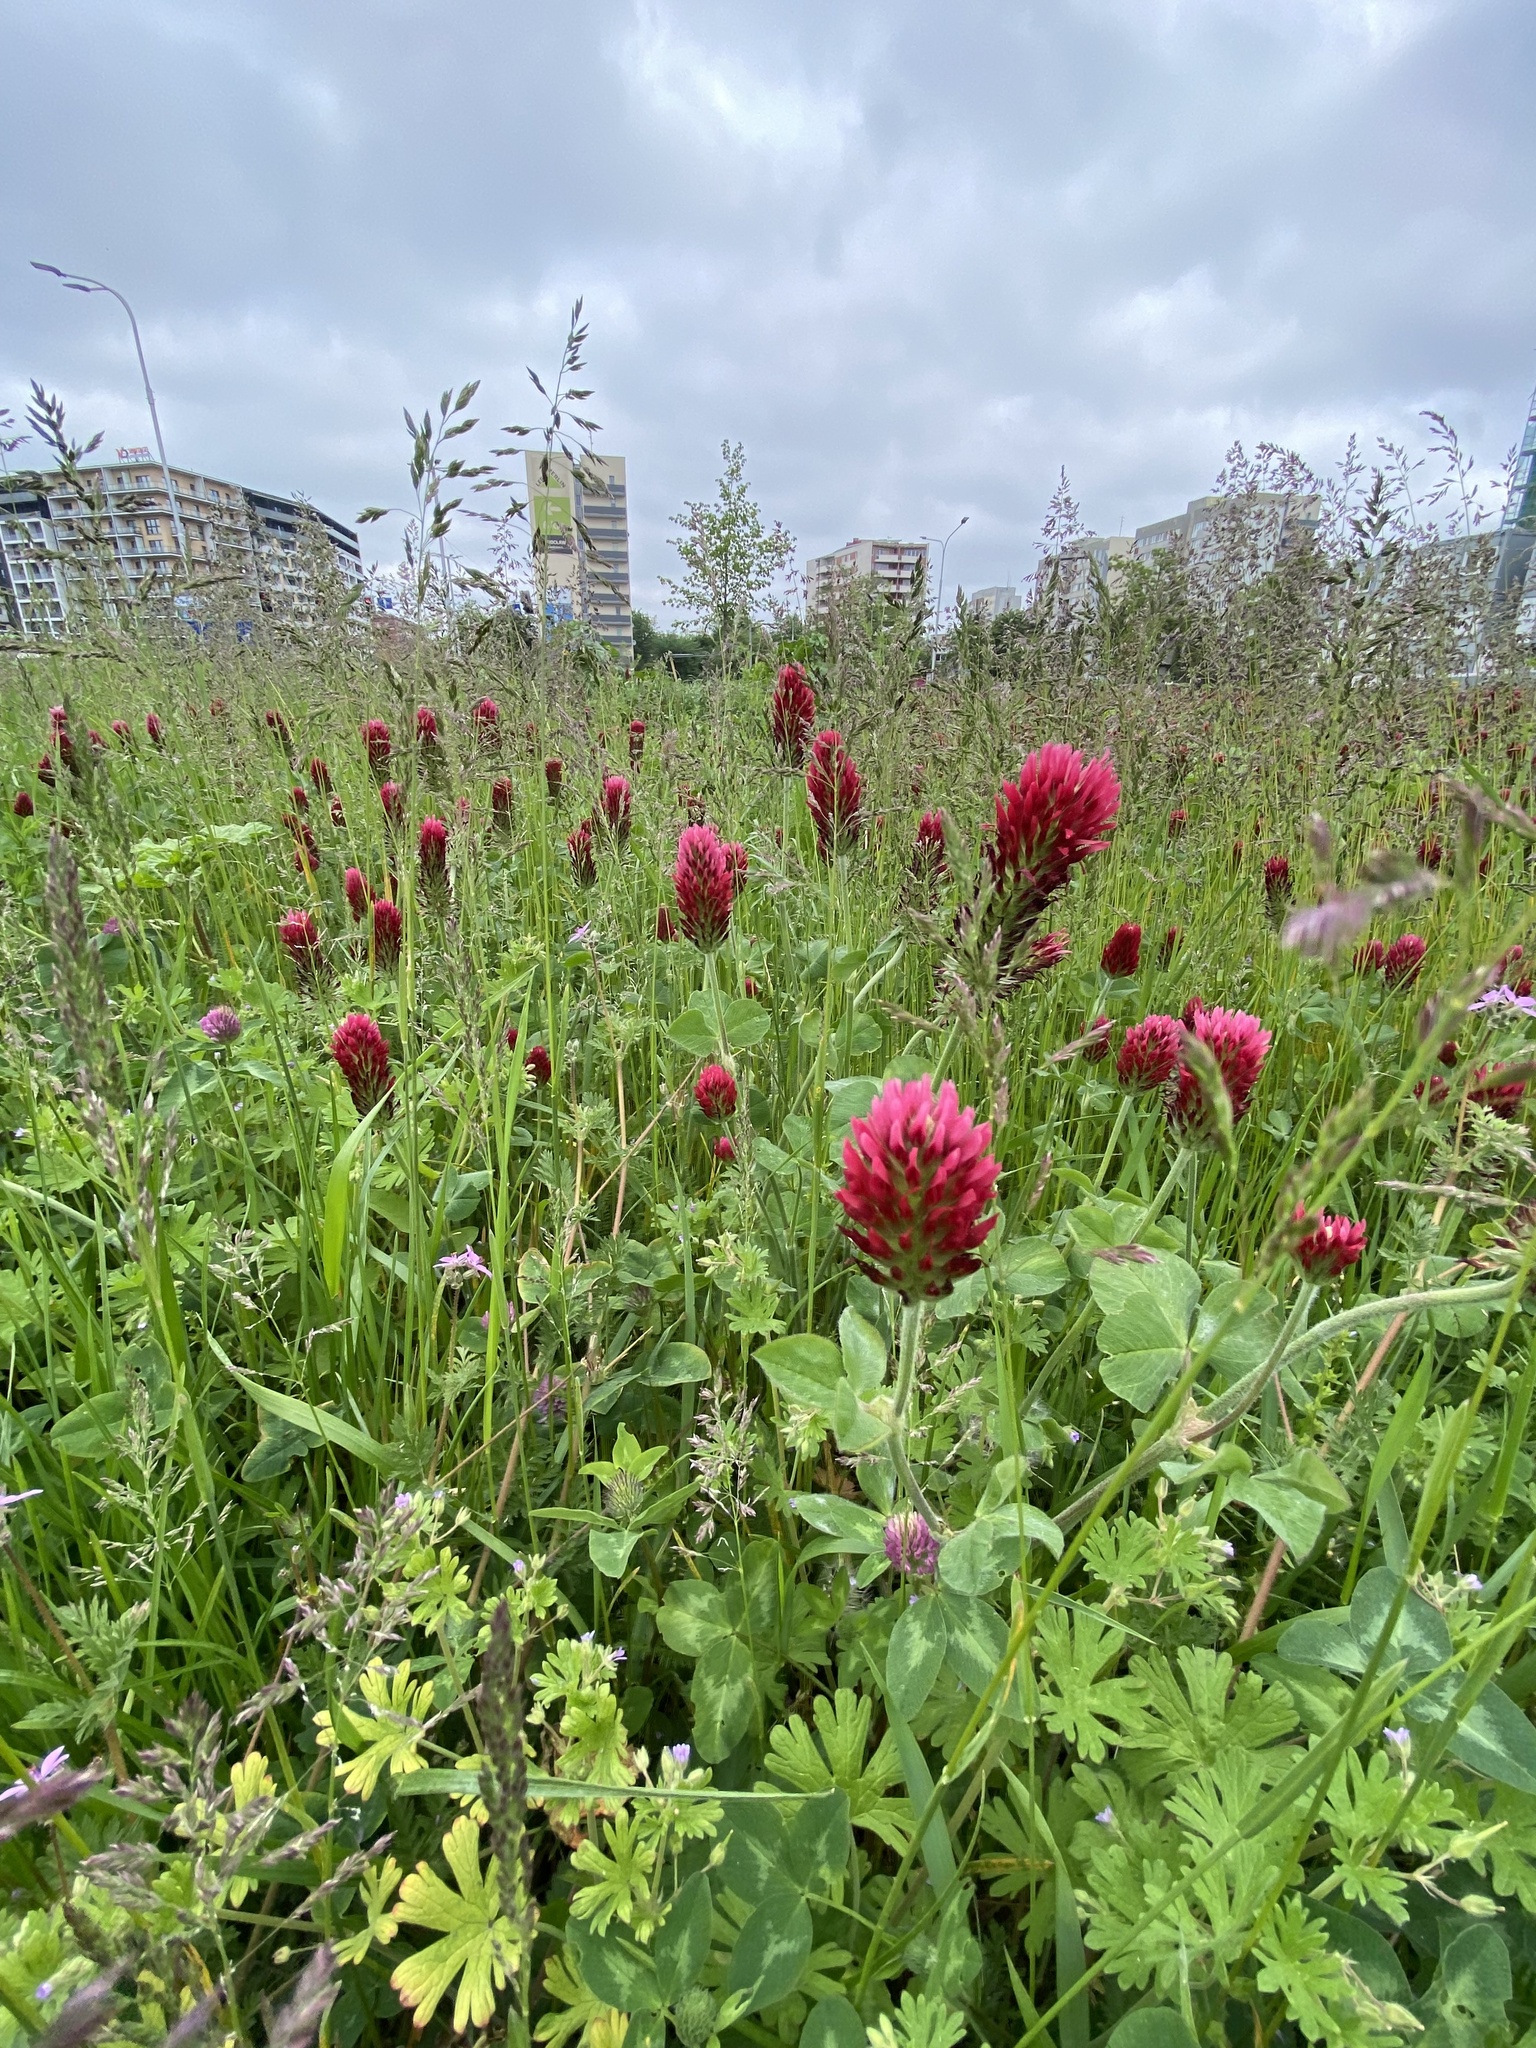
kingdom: Plantae
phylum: Tracheophyta
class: Magnoliopsida
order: Fabales
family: Fabaceae
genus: Trifolium
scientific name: Trifolium incarnatum
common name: Crimson clover
